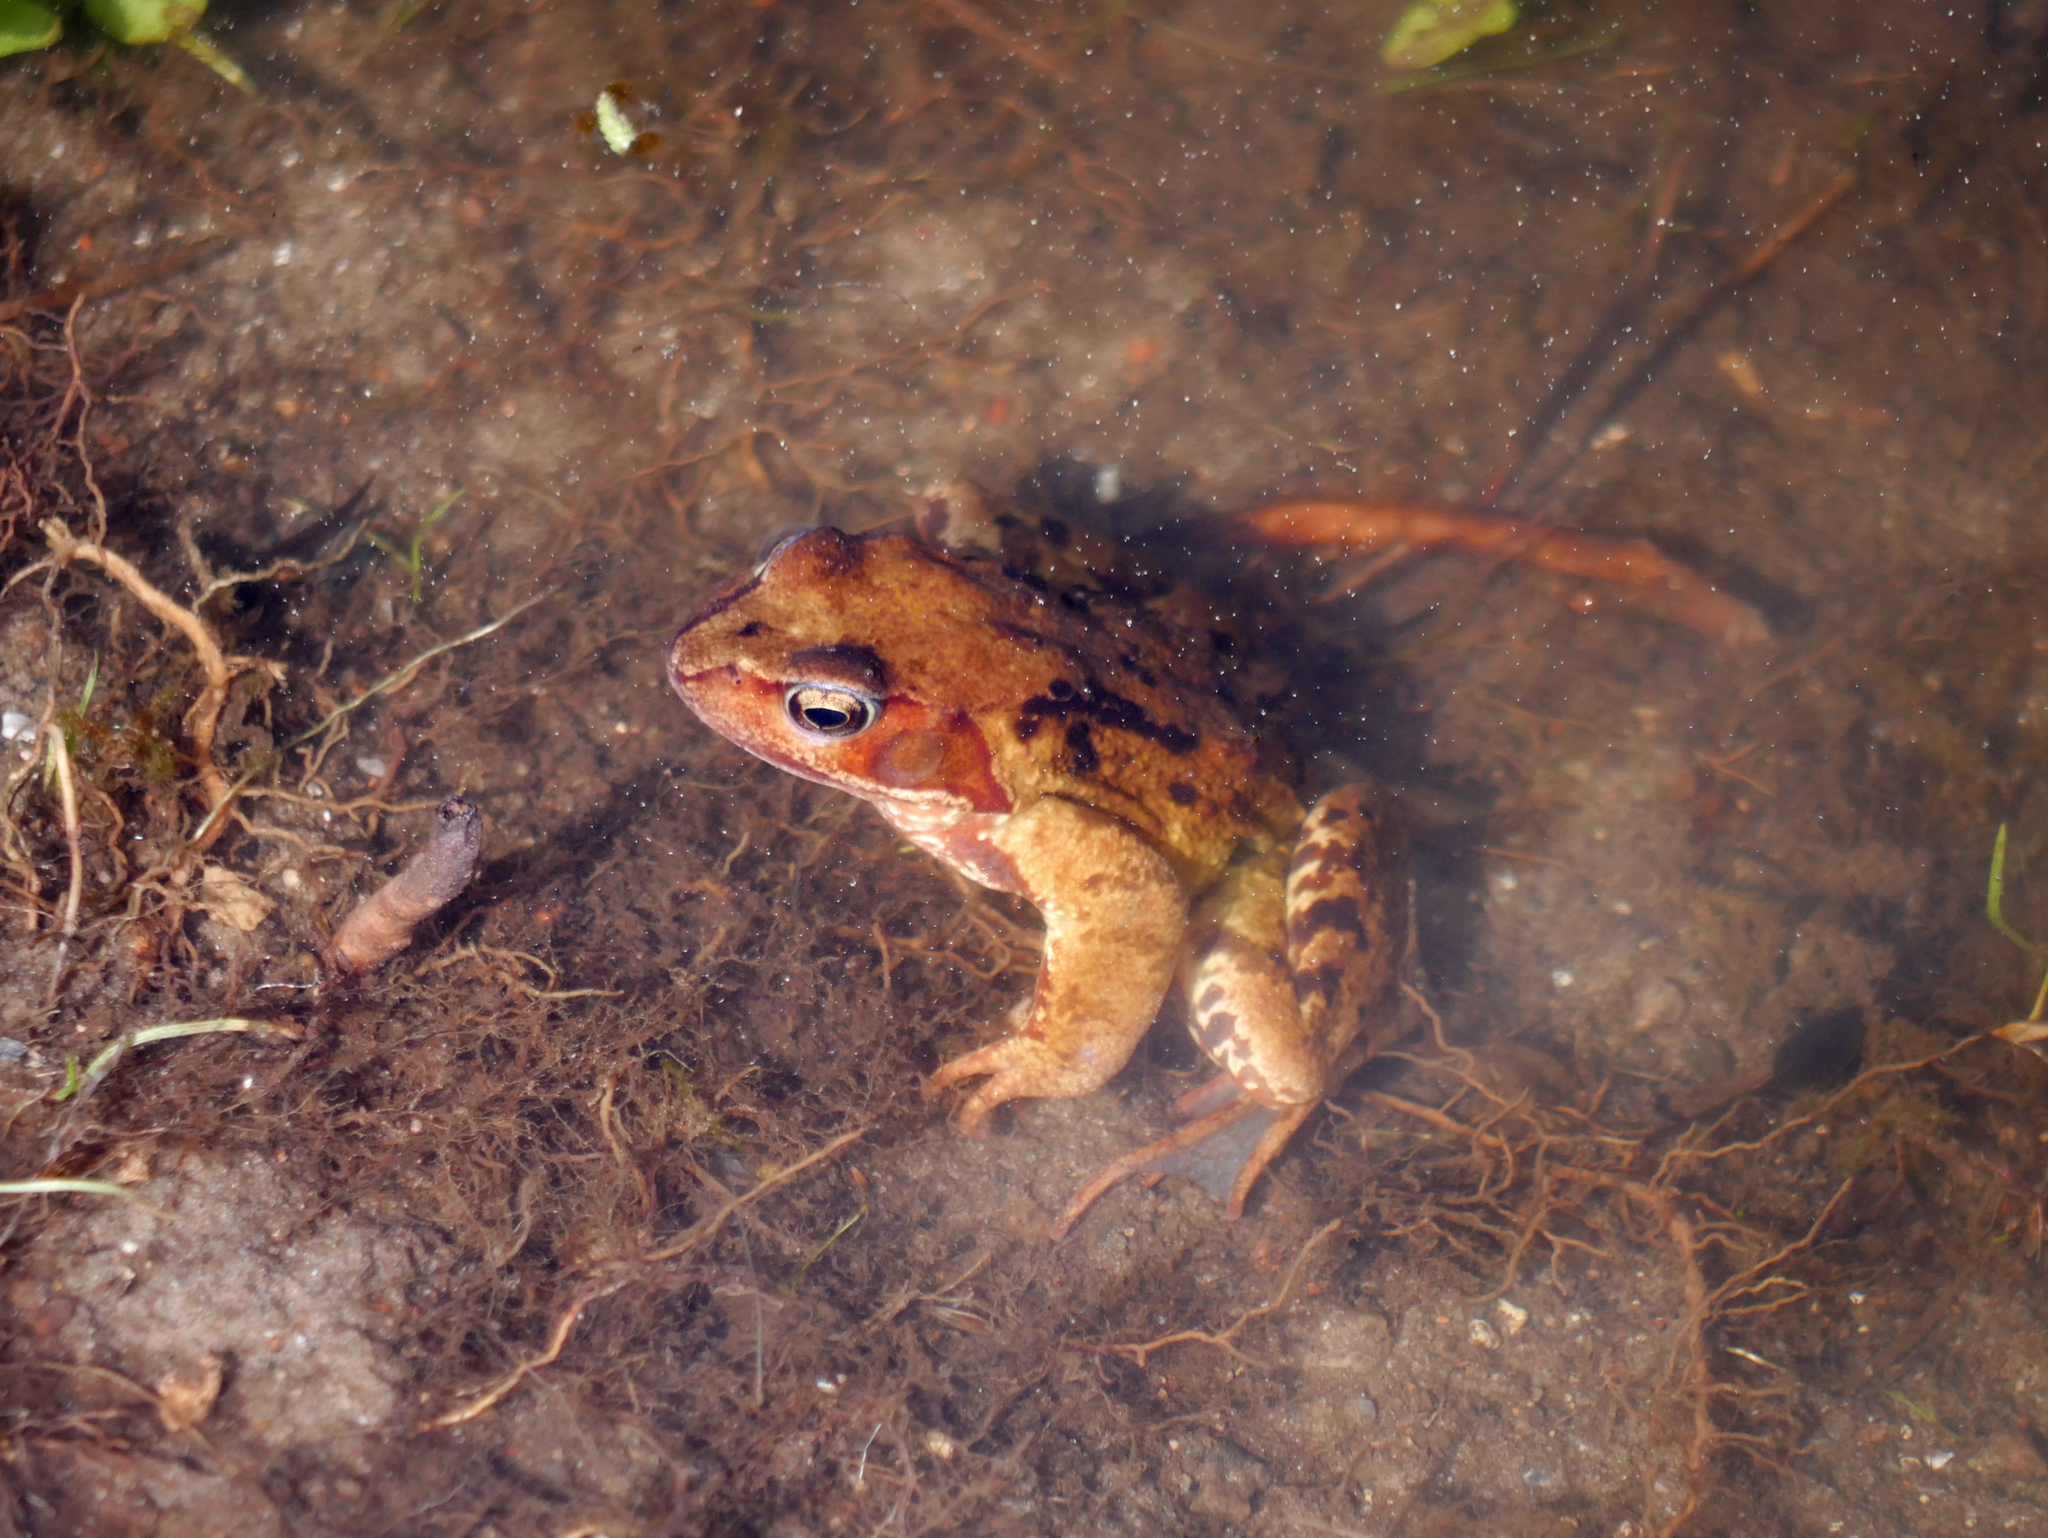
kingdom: Animalia
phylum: Chordata
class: Amphibia
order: Anura
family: Ranidae
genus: Rana
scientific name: Rana temporaria
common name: Common frog
